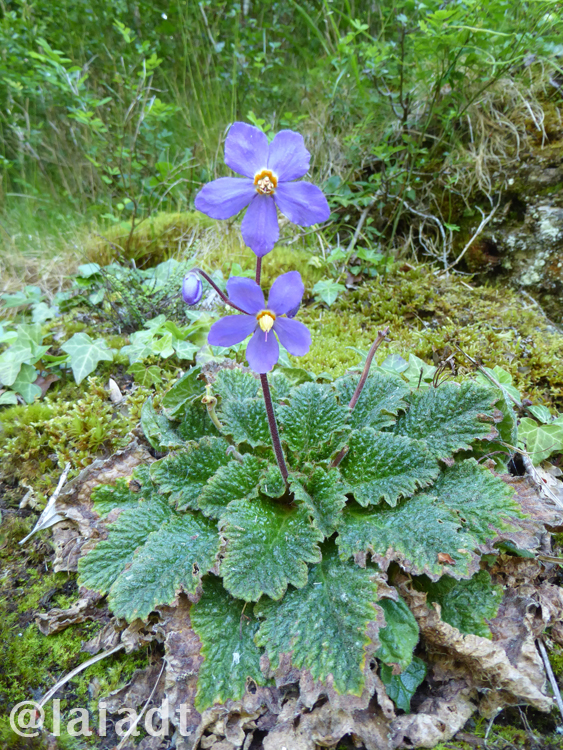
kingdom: Plantae
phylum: Tracheophyta
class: Magnoliopsida
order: Lamiales
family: Gesneriaceae
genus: Ramonda
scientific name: Ramonda myconi
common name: Pyrenean-violet
